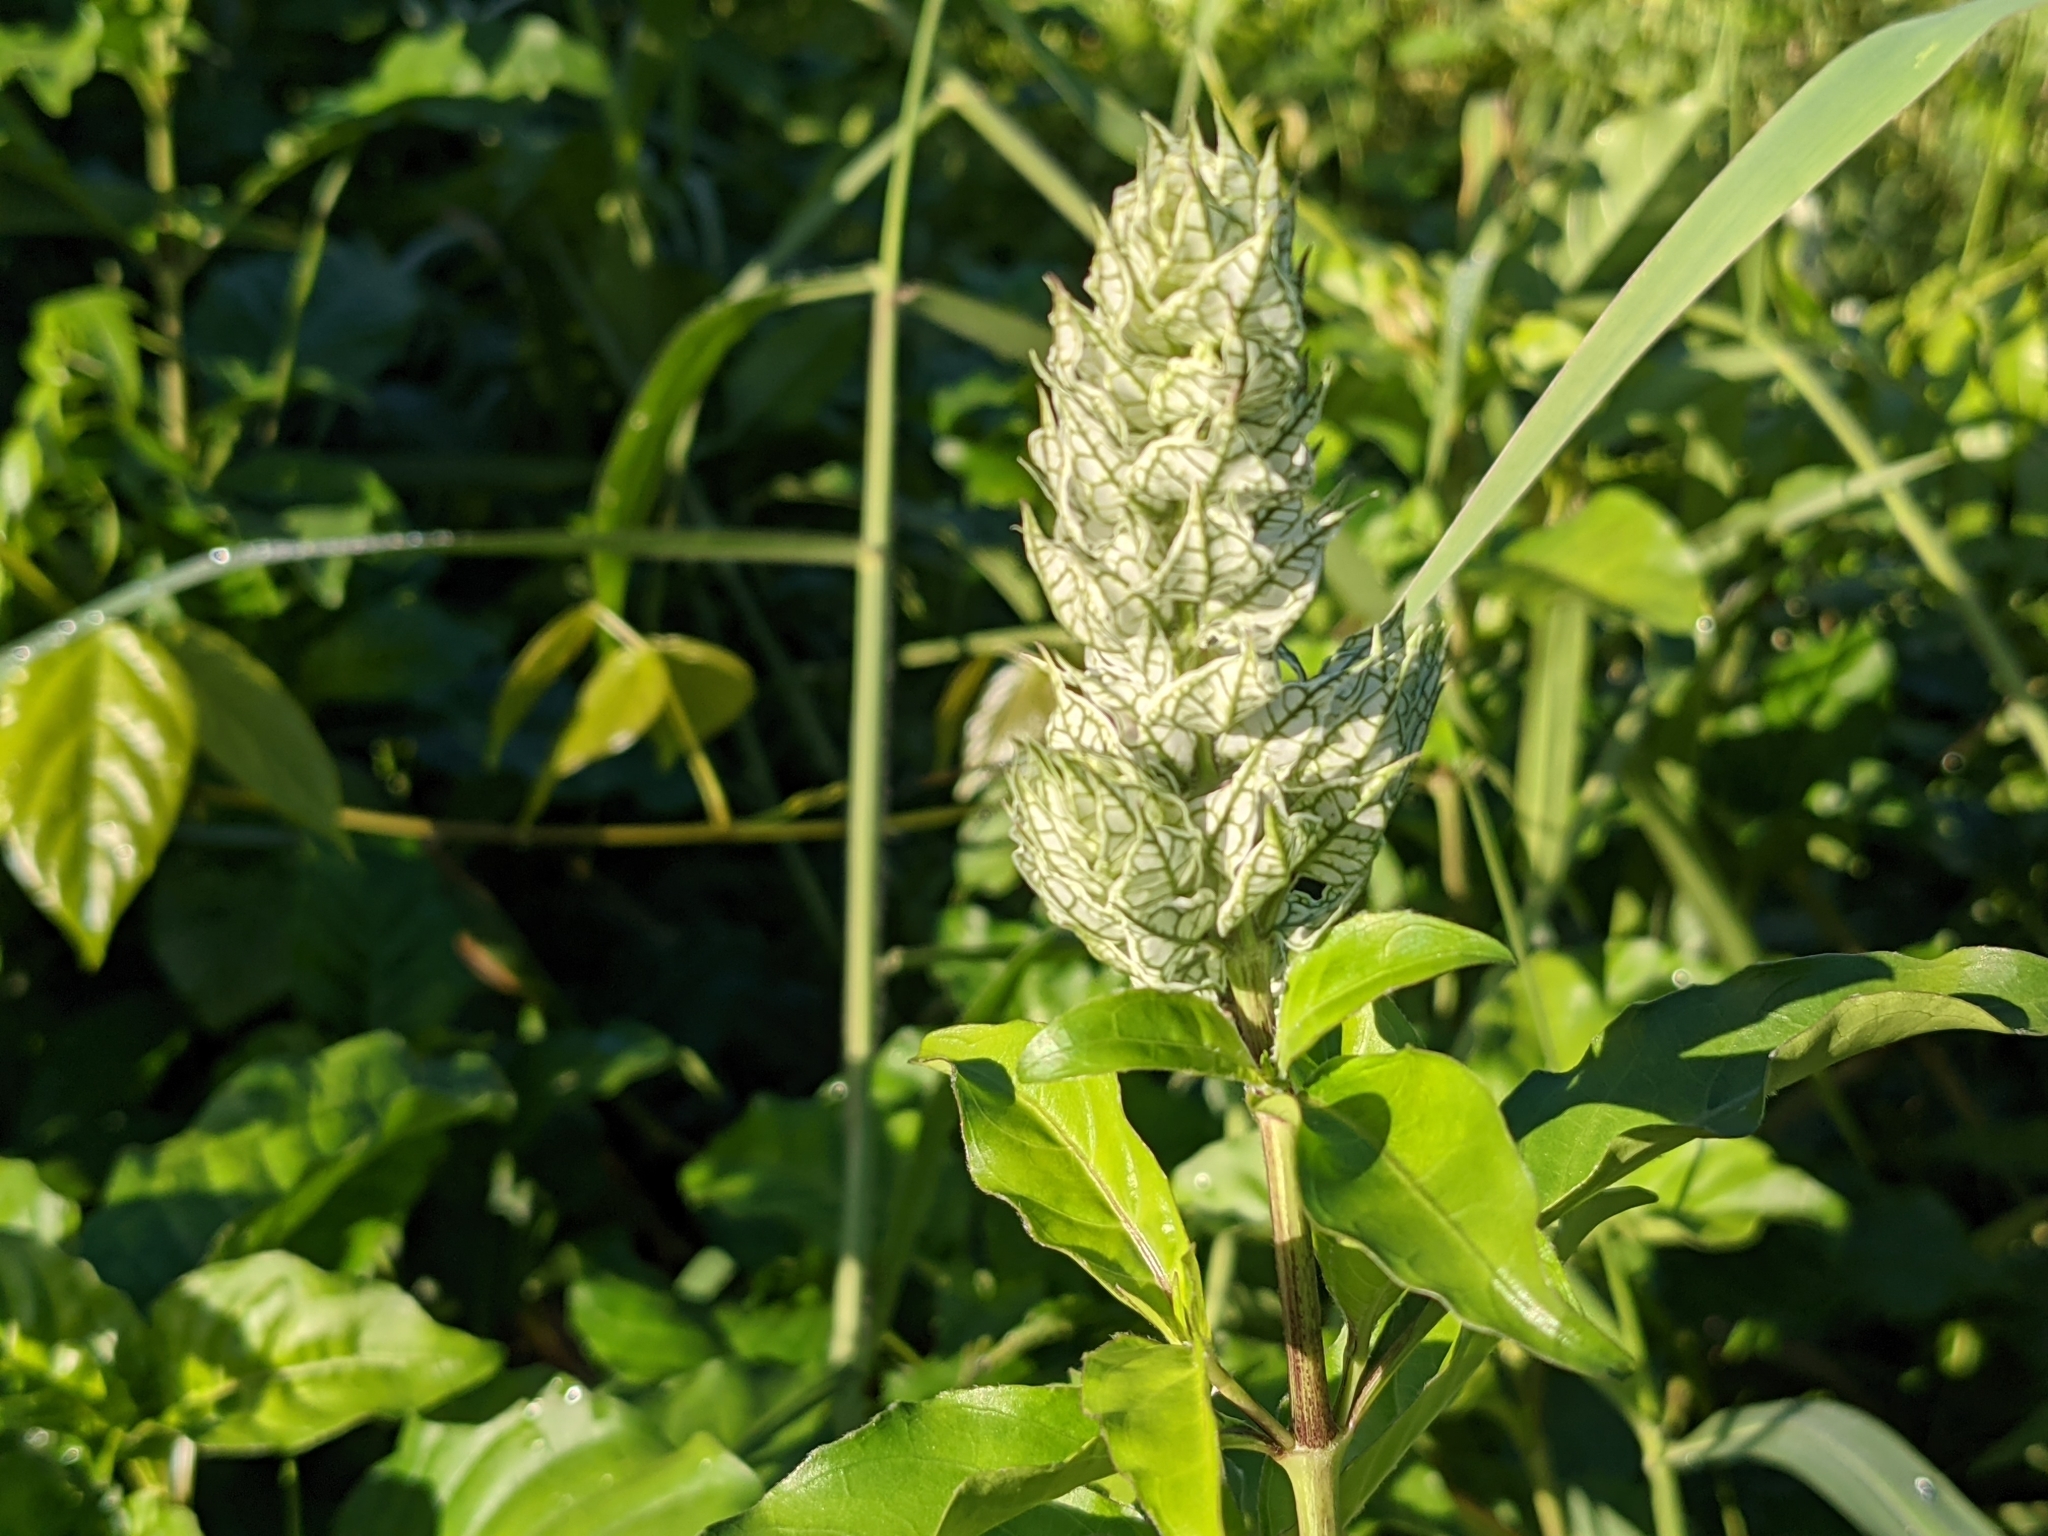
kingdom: Plantae
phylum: Tracheophyta
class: Magnoliopsida
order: Lamiales
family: Acanthaceae
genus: Justicia
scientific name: Justicia betonica
